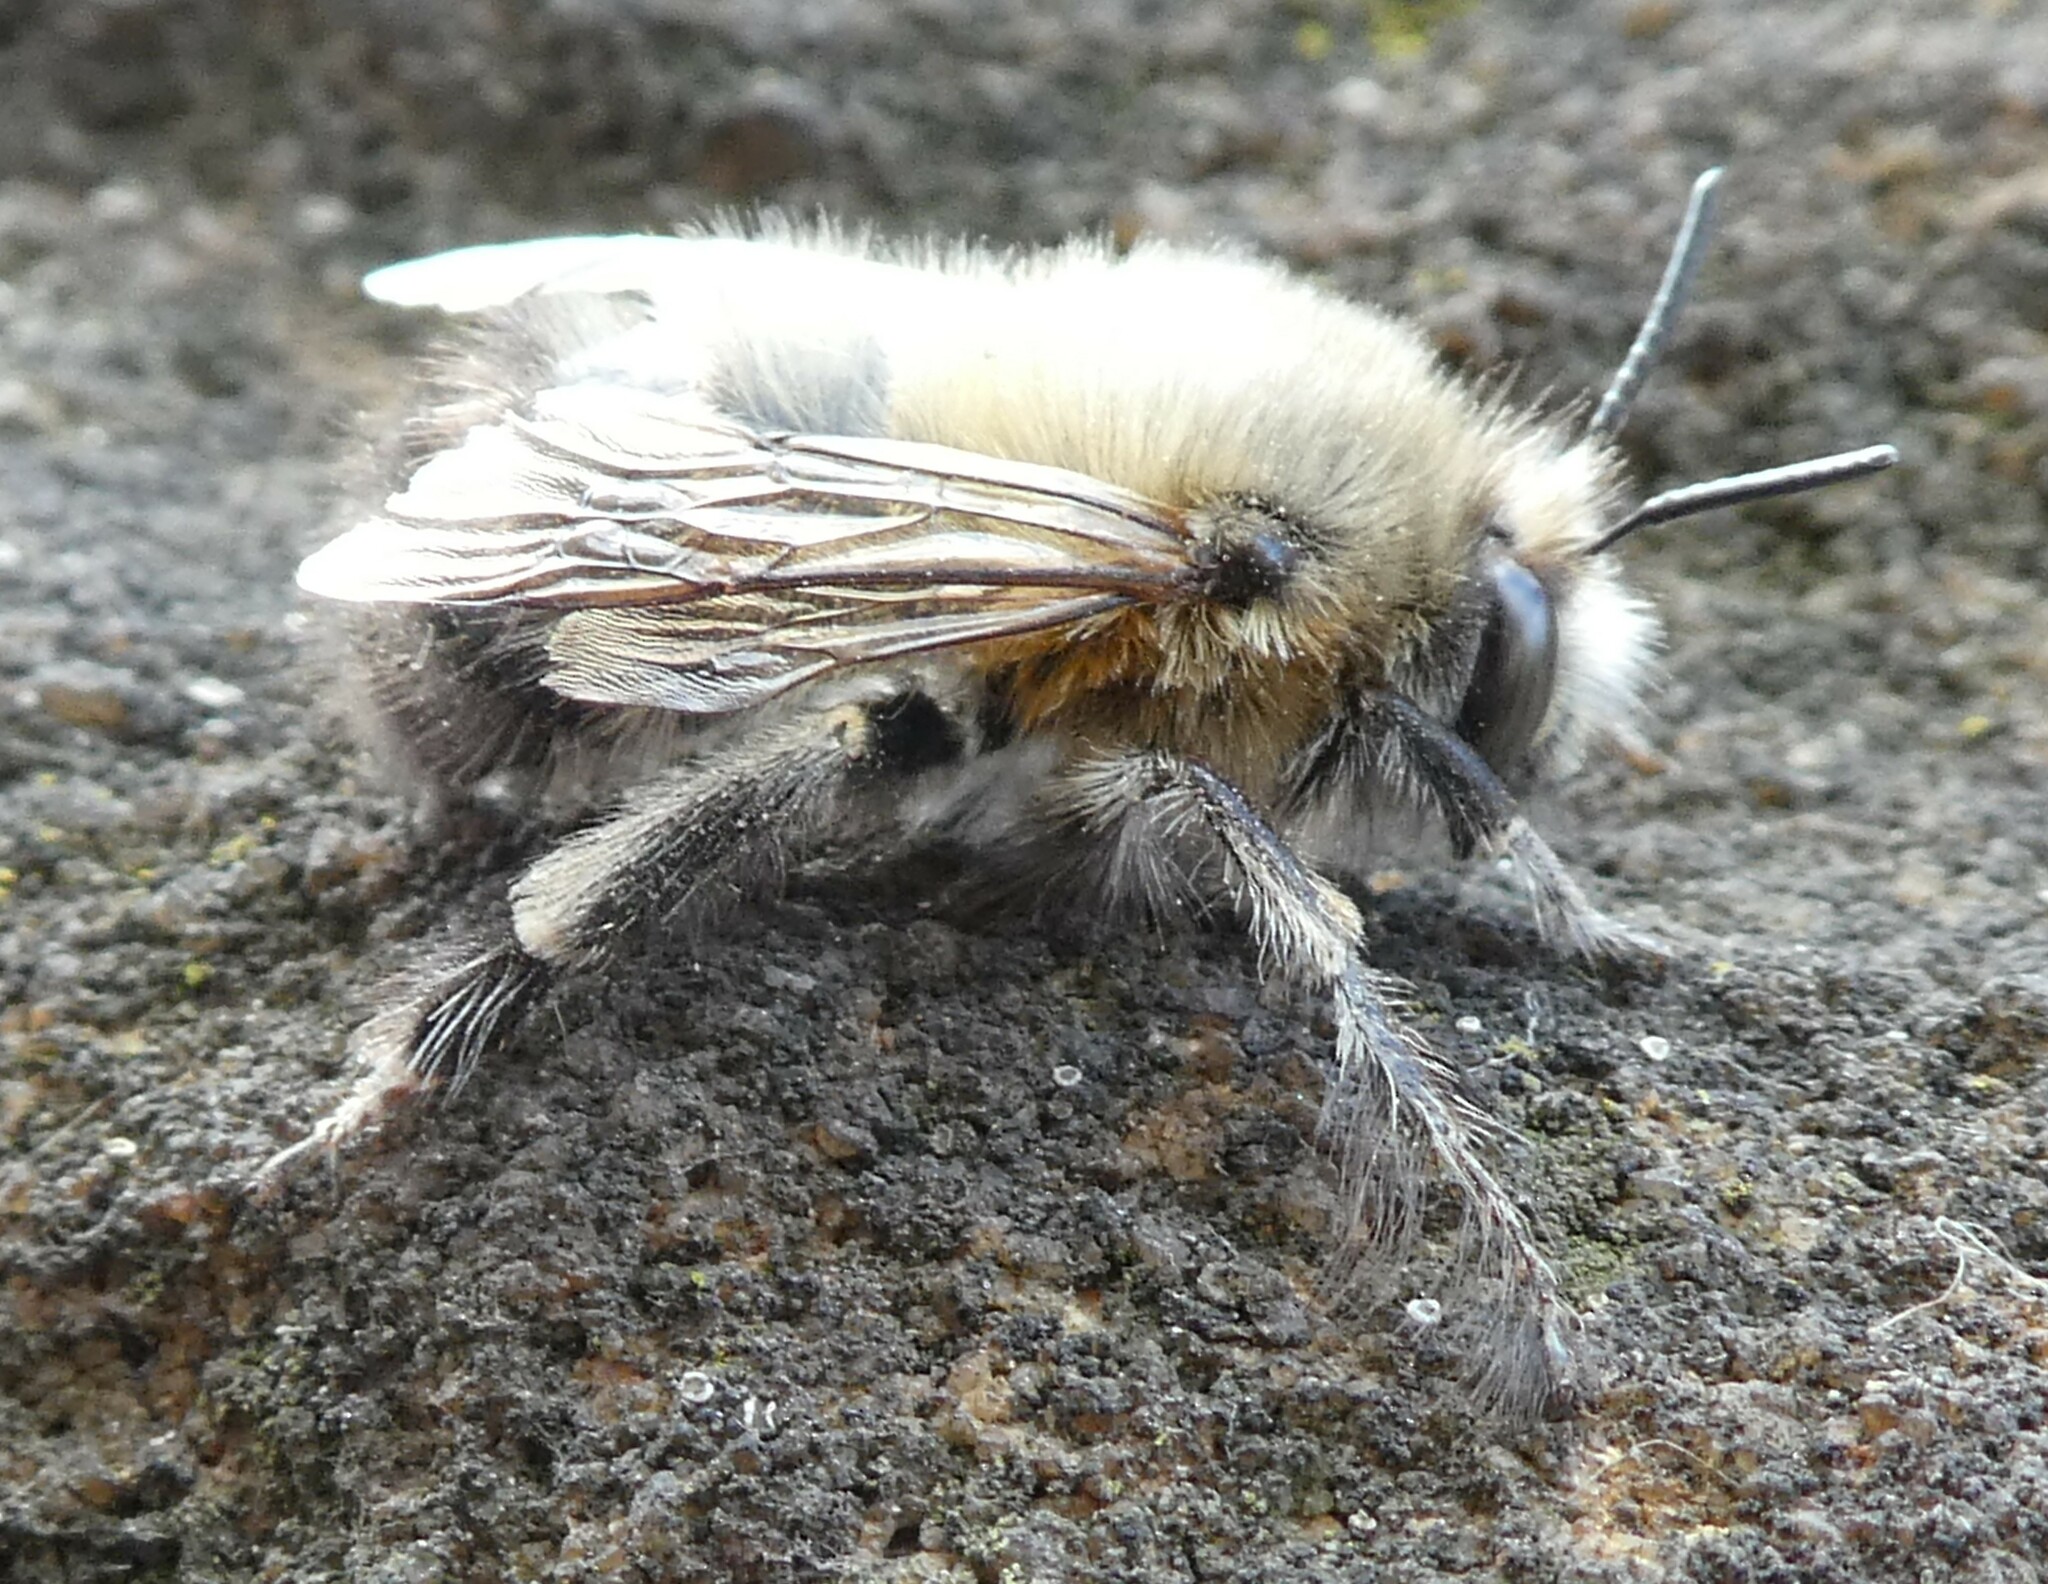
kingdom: Animalia
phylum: Arthropoda
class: Insecta
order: Hymenoptera
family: Apidae
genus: Anthophora
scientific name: Anthophora plumipes
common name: Hairy-footed flower bee
